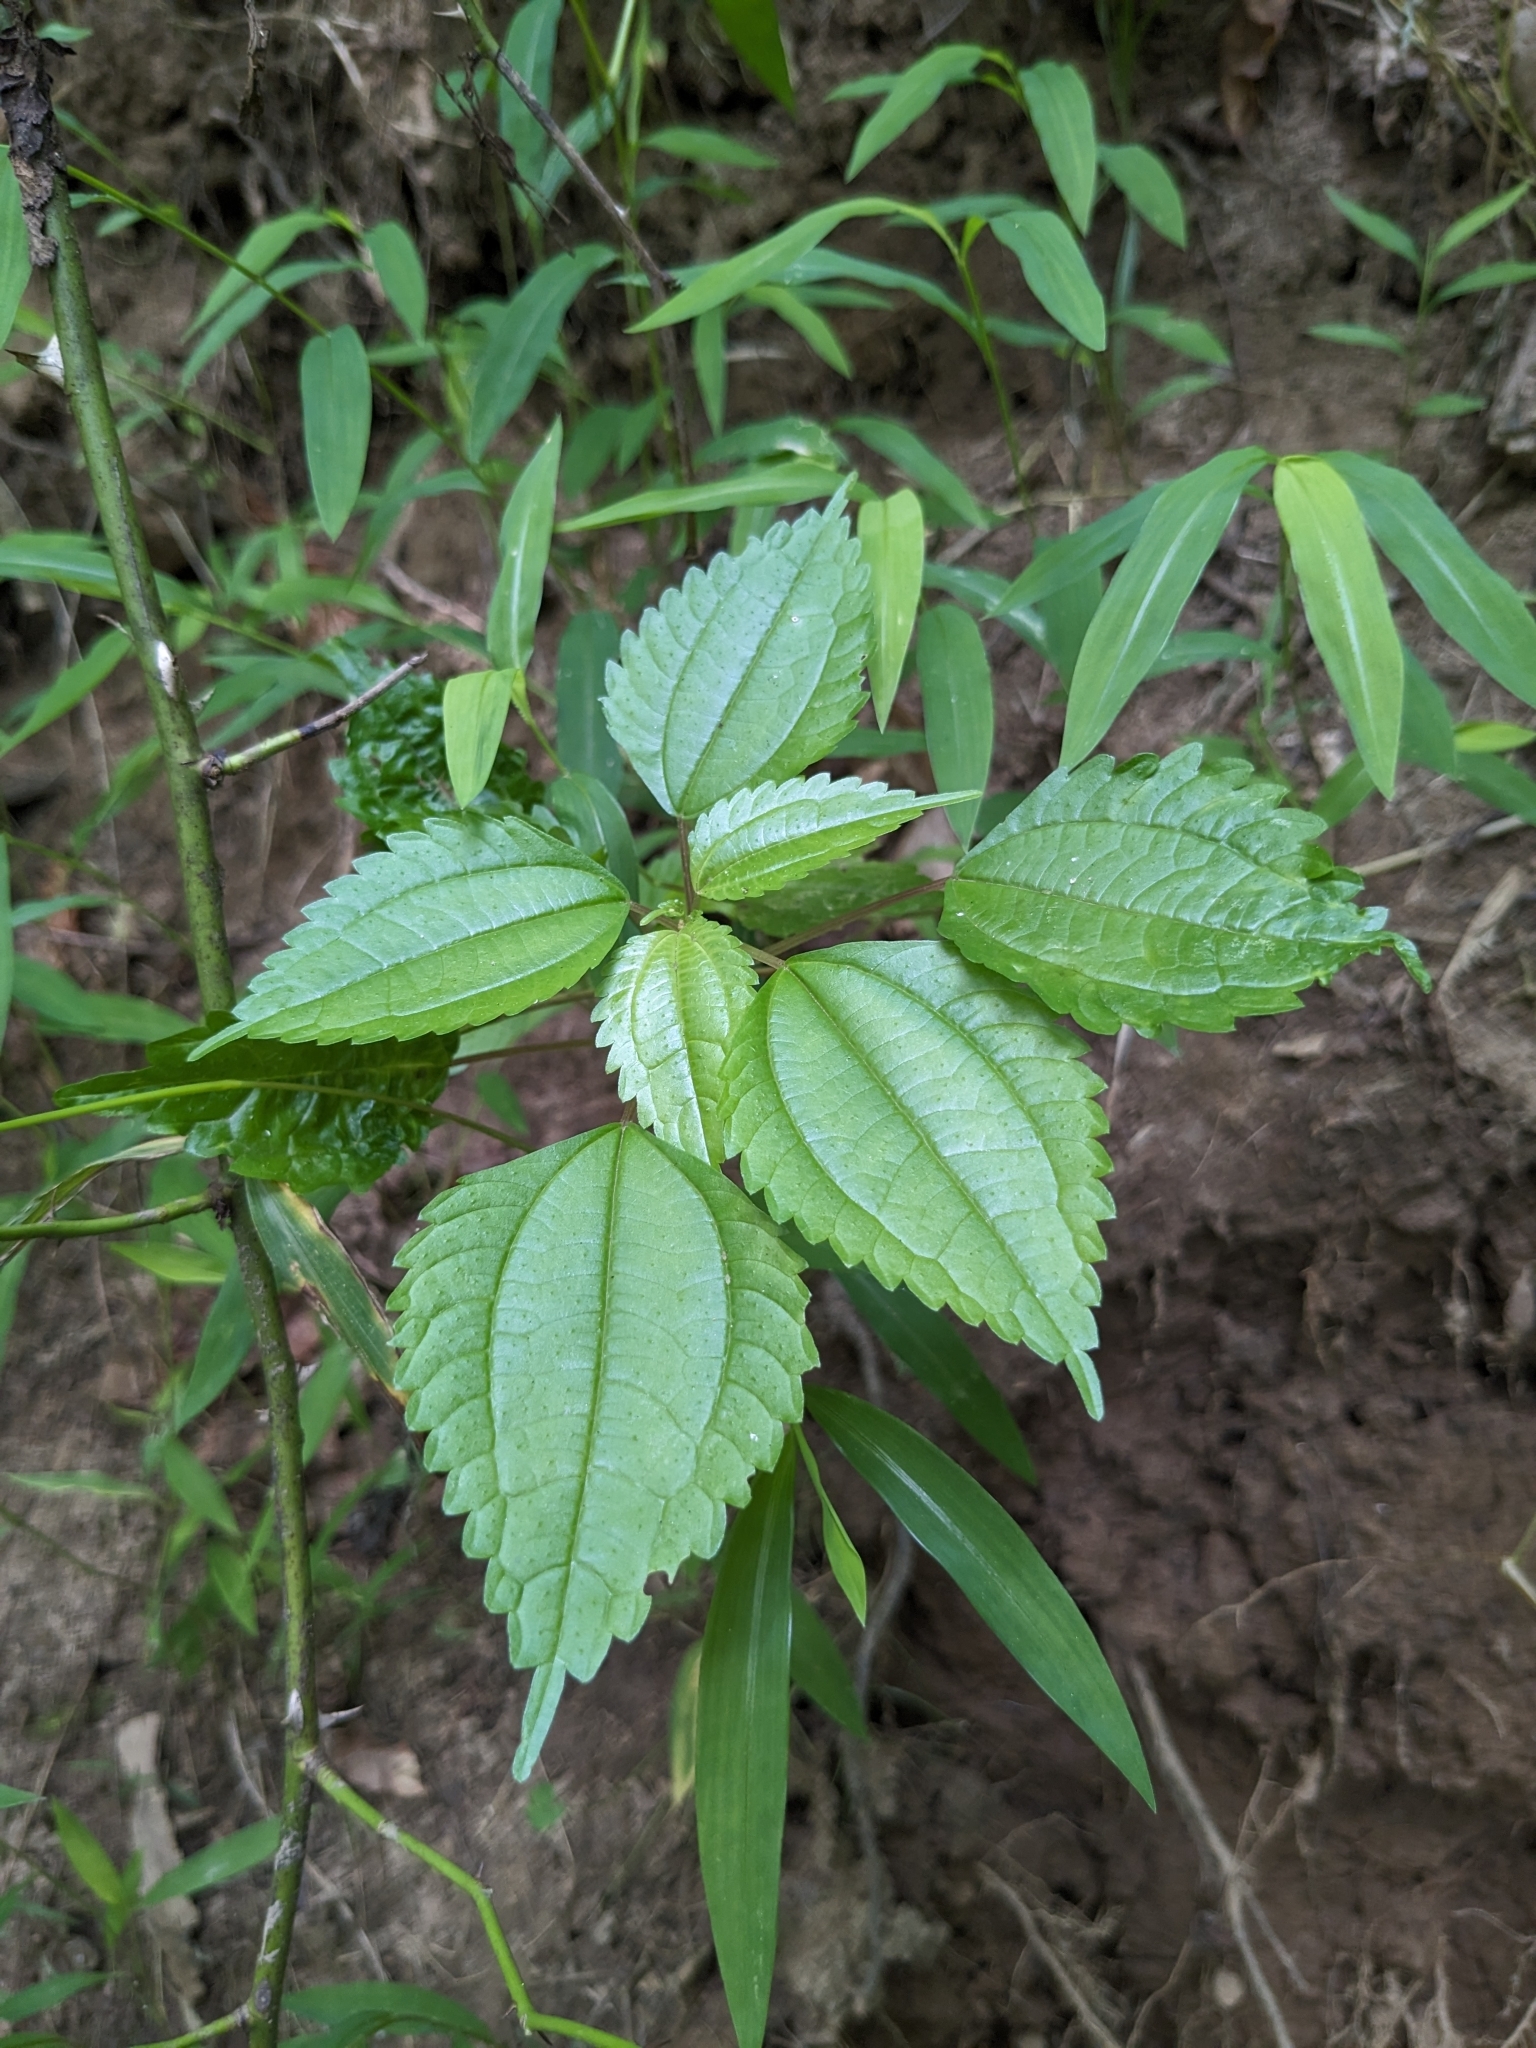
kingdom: Plantae
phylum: Tracheophyta
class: Magnoliopsida
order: Rosales
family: Urticaceae
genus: Pilea
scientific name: Pilea pumila
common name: Clearweed
